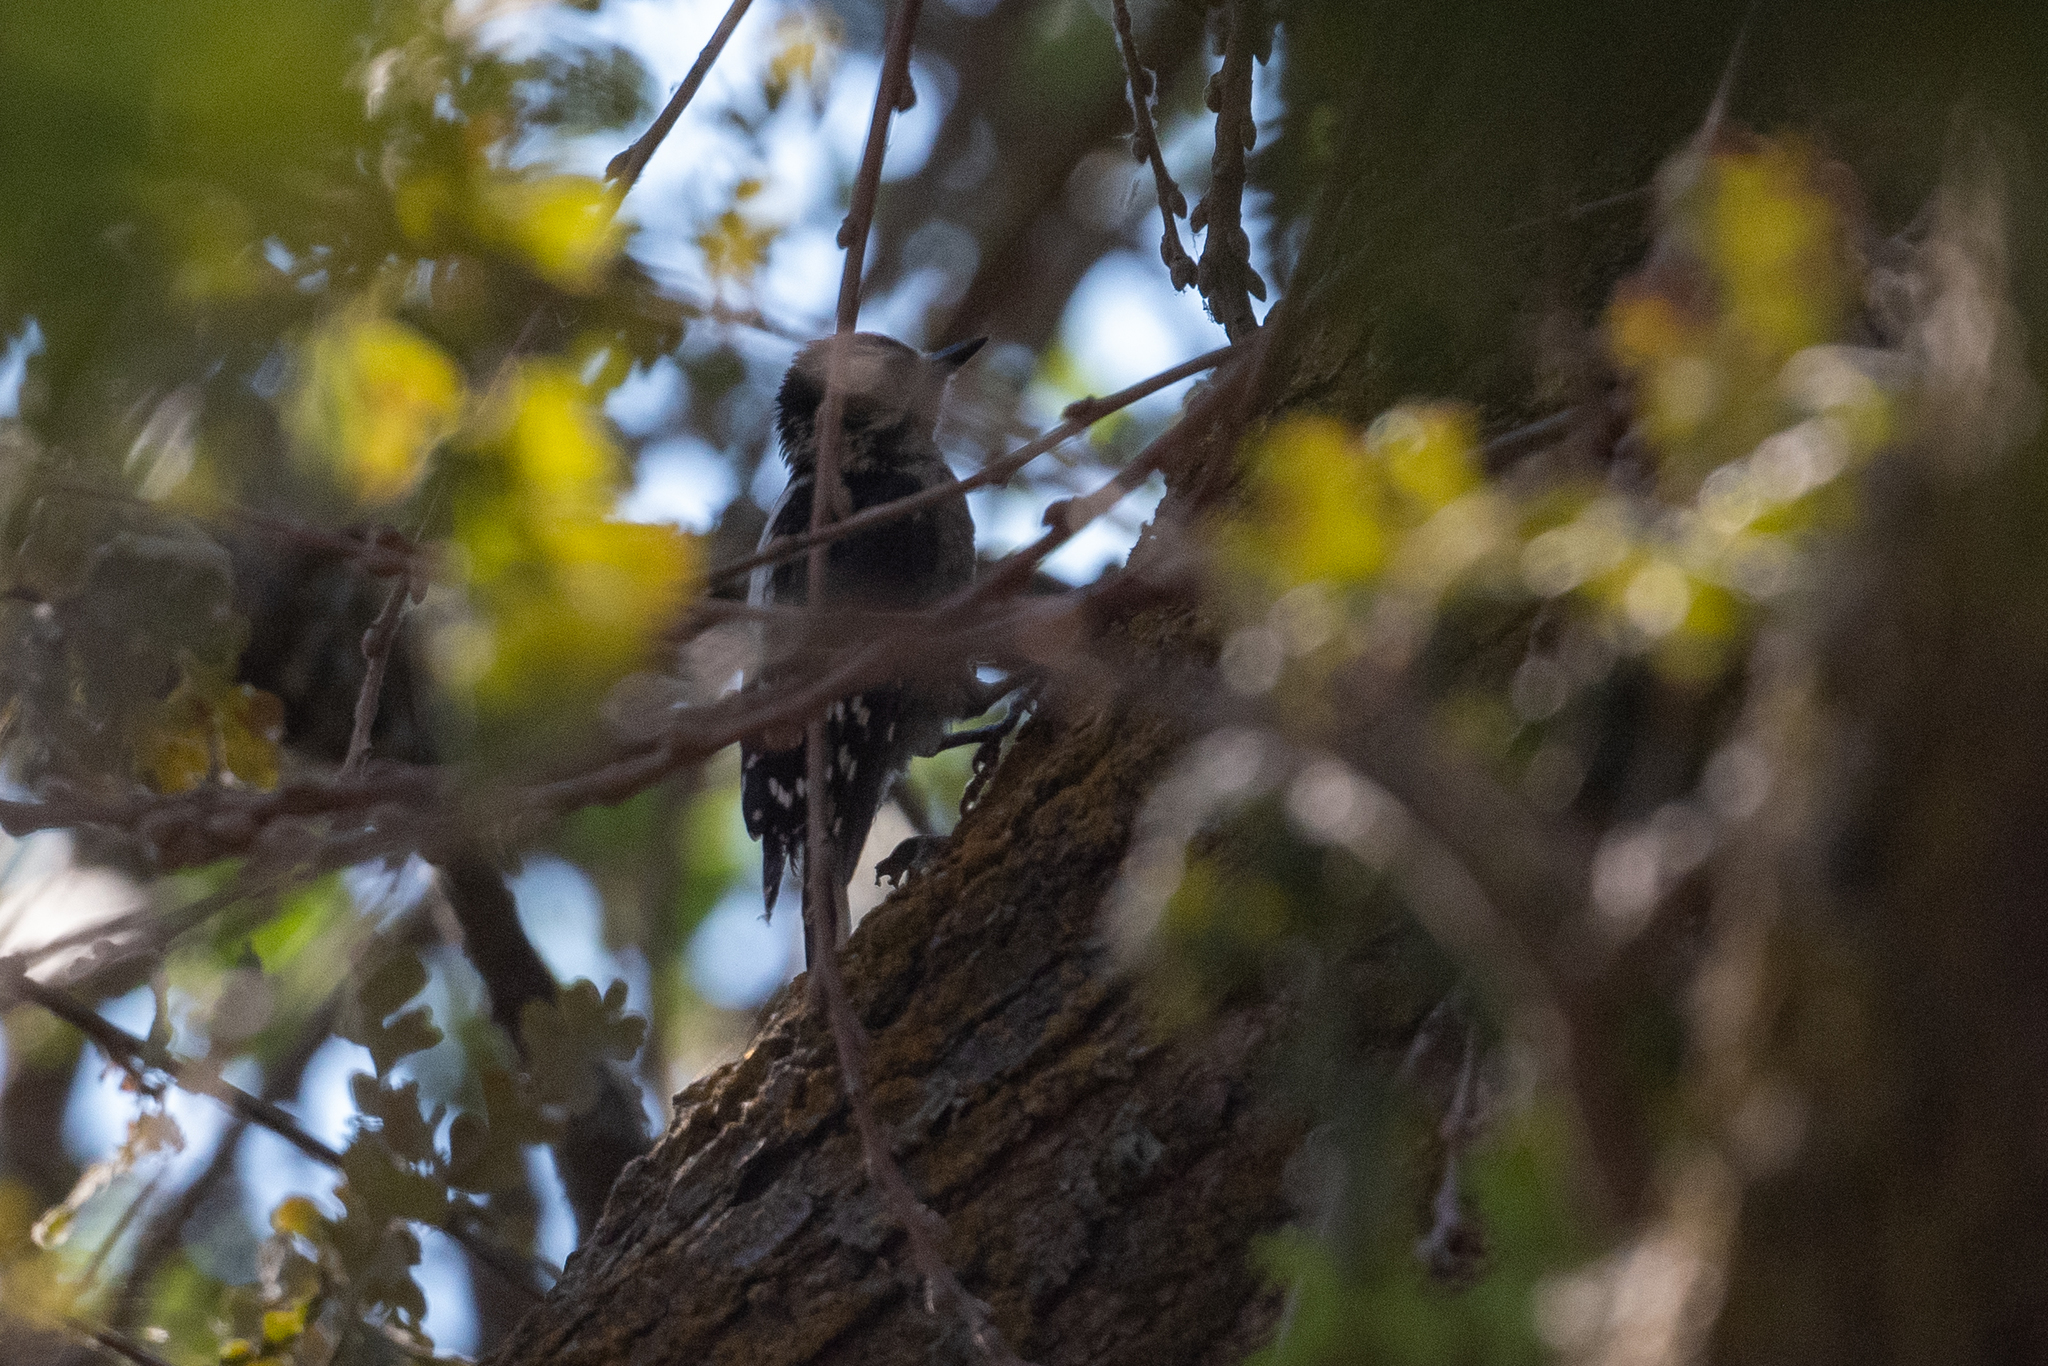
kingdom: Animalia
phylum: Chordata
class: Aves
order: Piciformes
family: Picidae
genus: Dryobates
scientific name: Dryobates pubescens
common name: Downy woodpecker
